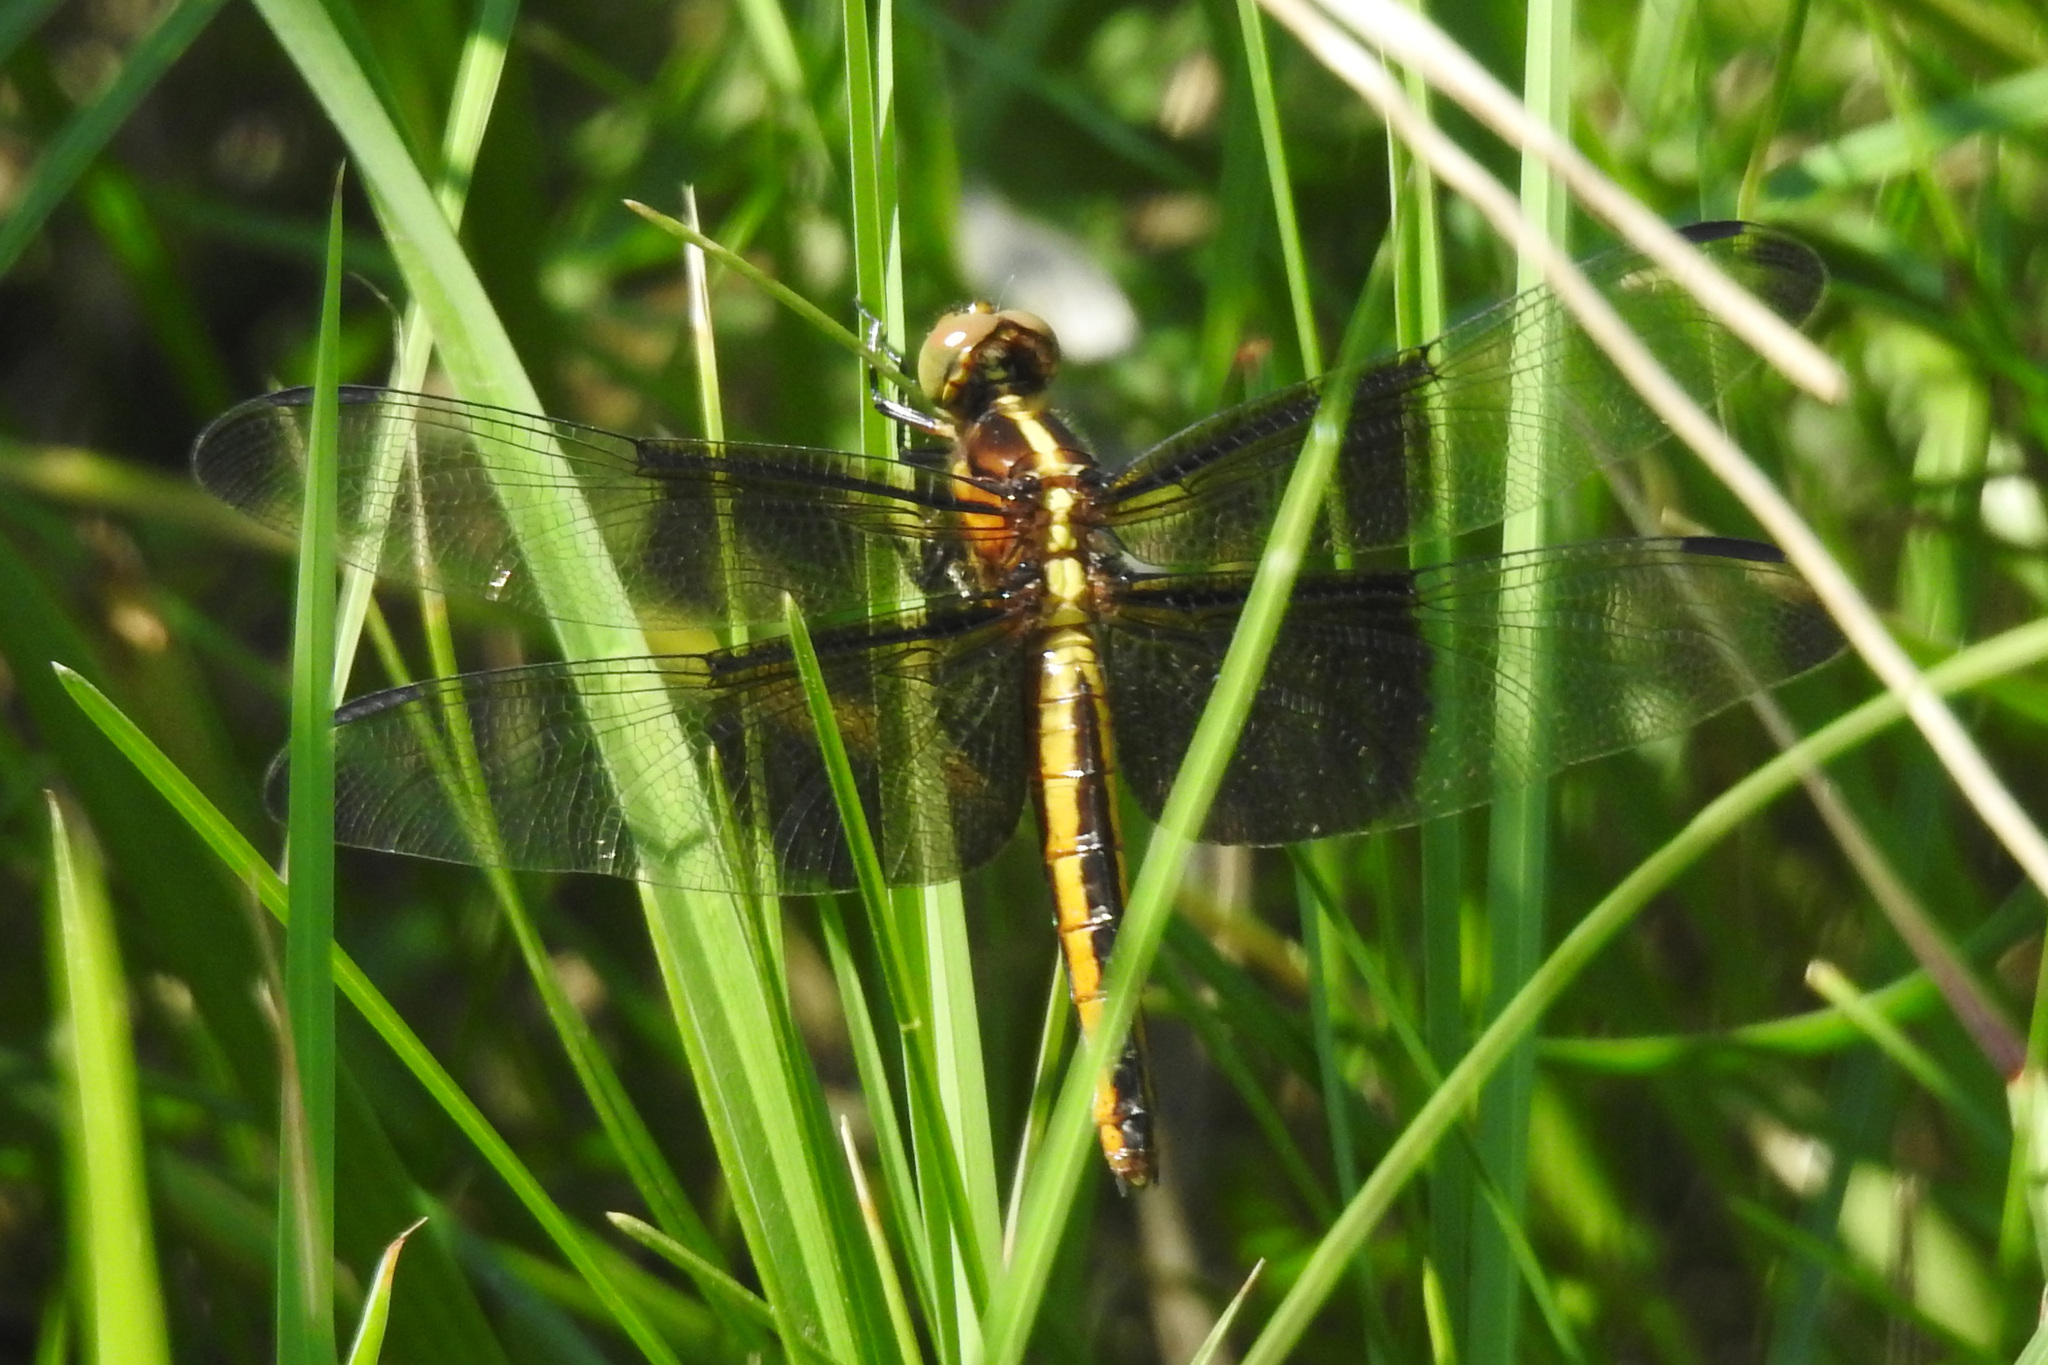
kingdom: Animalia
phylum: Arthropoda
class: Insecta
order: Odonata
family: Libellulidae
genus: Libellula
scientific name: Libellula luctuosa
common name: Widow skimmer
